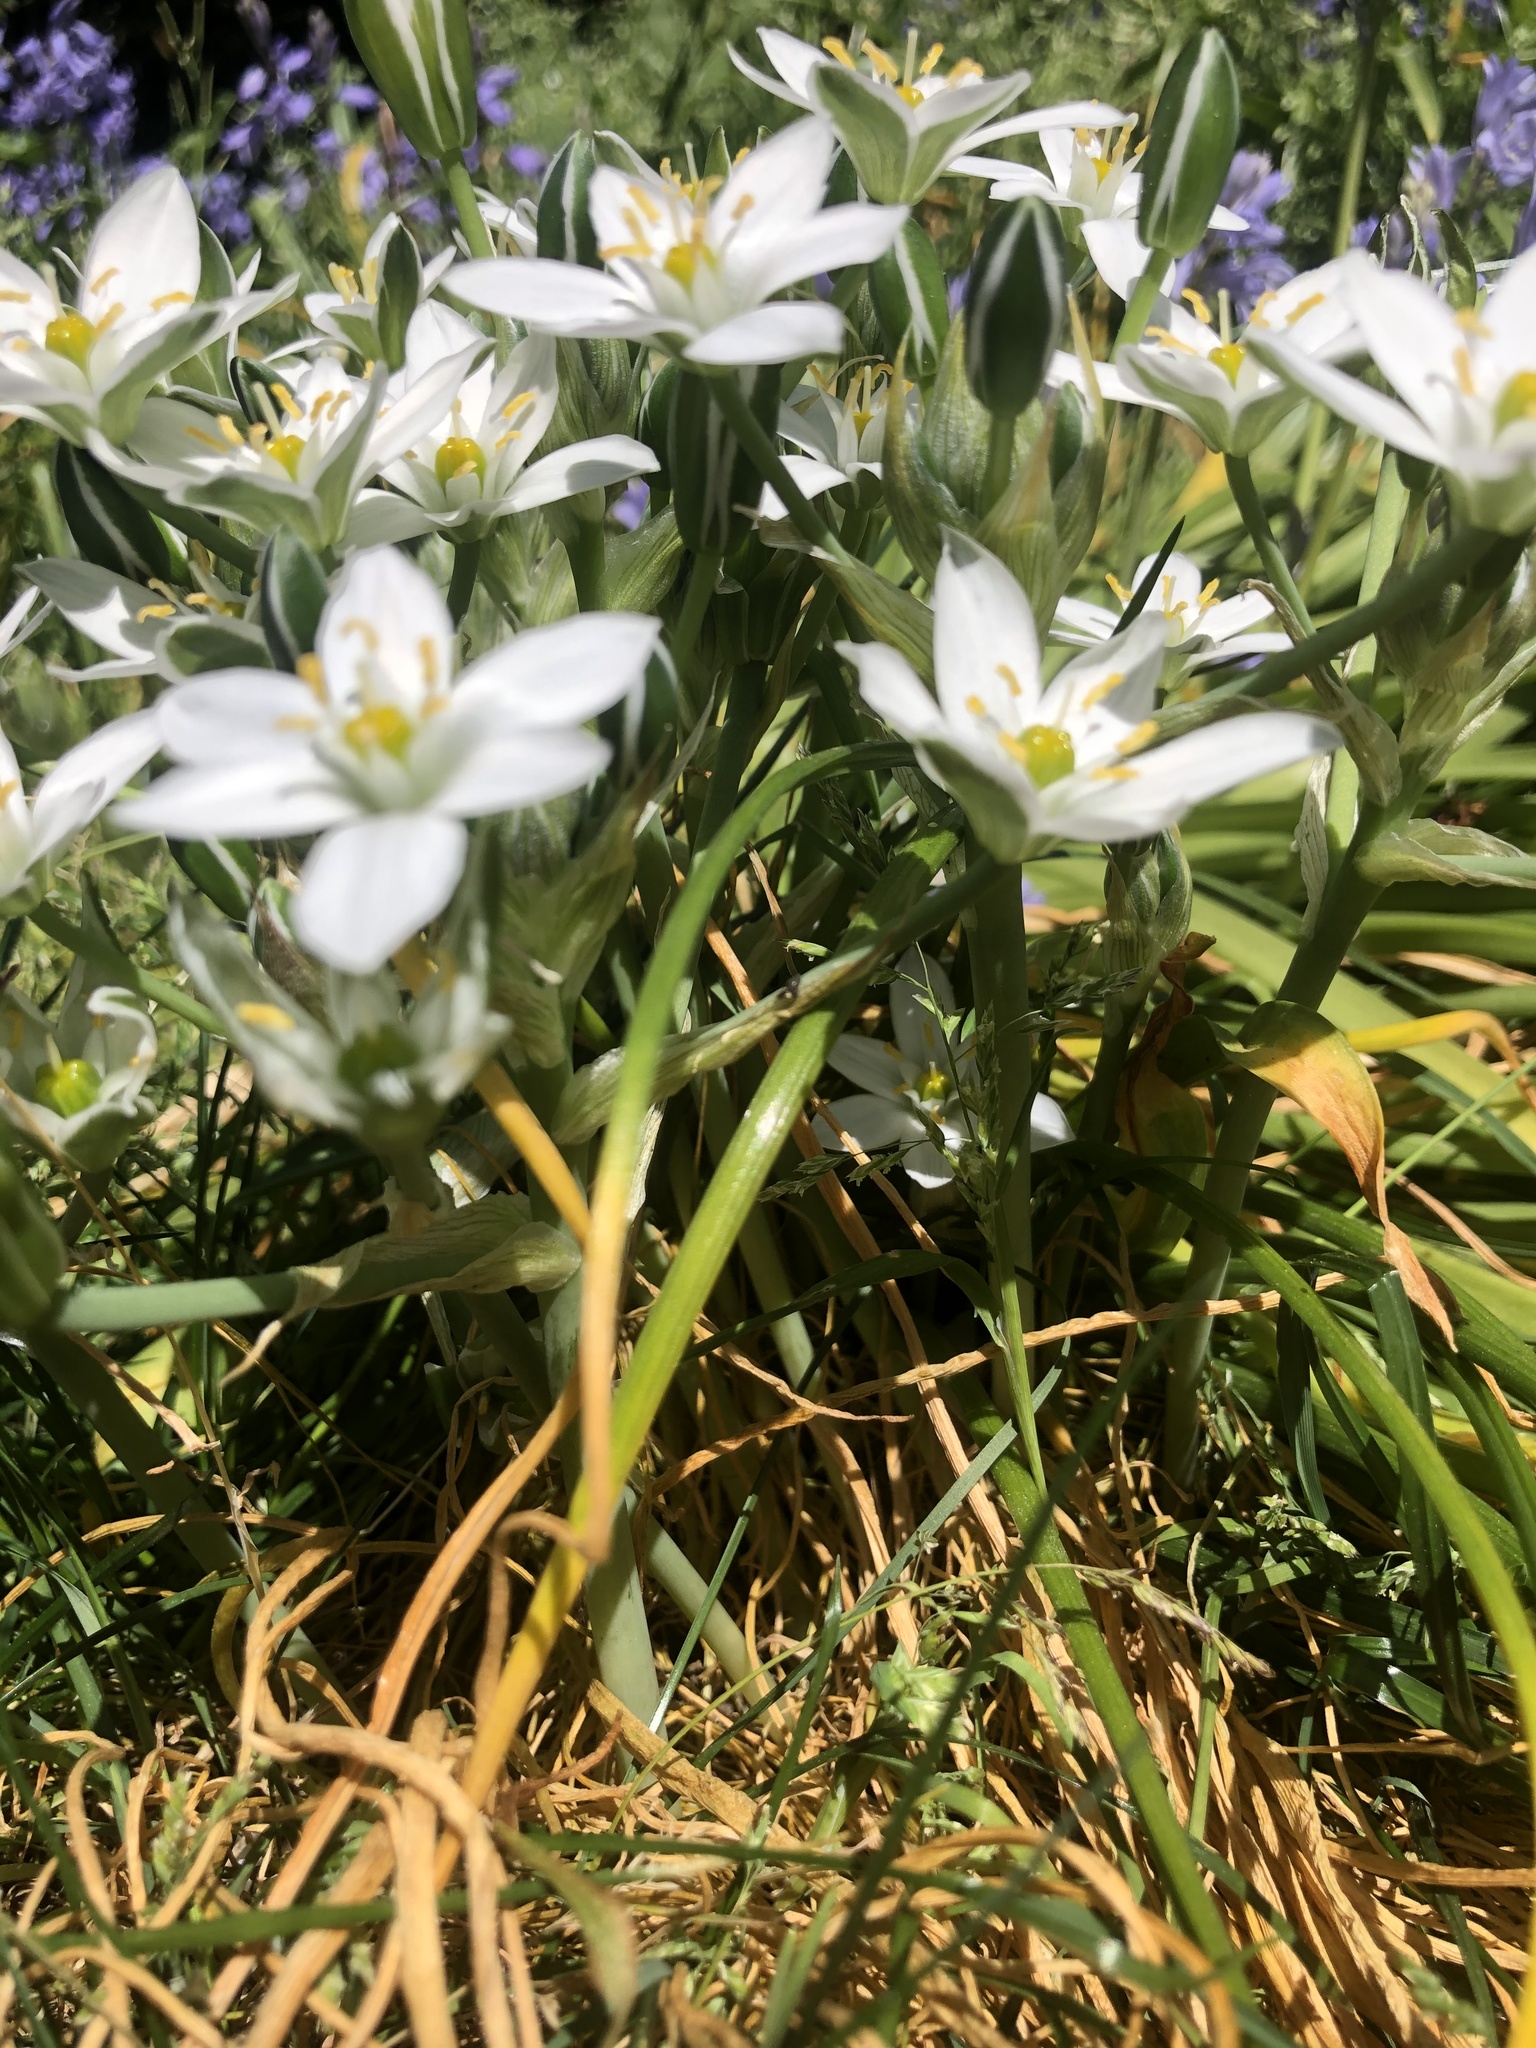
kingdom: Plantae
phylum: Tracheophyta
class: Liliopsida
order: Asparagales
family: Asparagaceae
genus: Ornithogalum
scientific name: Ornithogalum umbellatum
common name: Garden star-of-bethlehem
